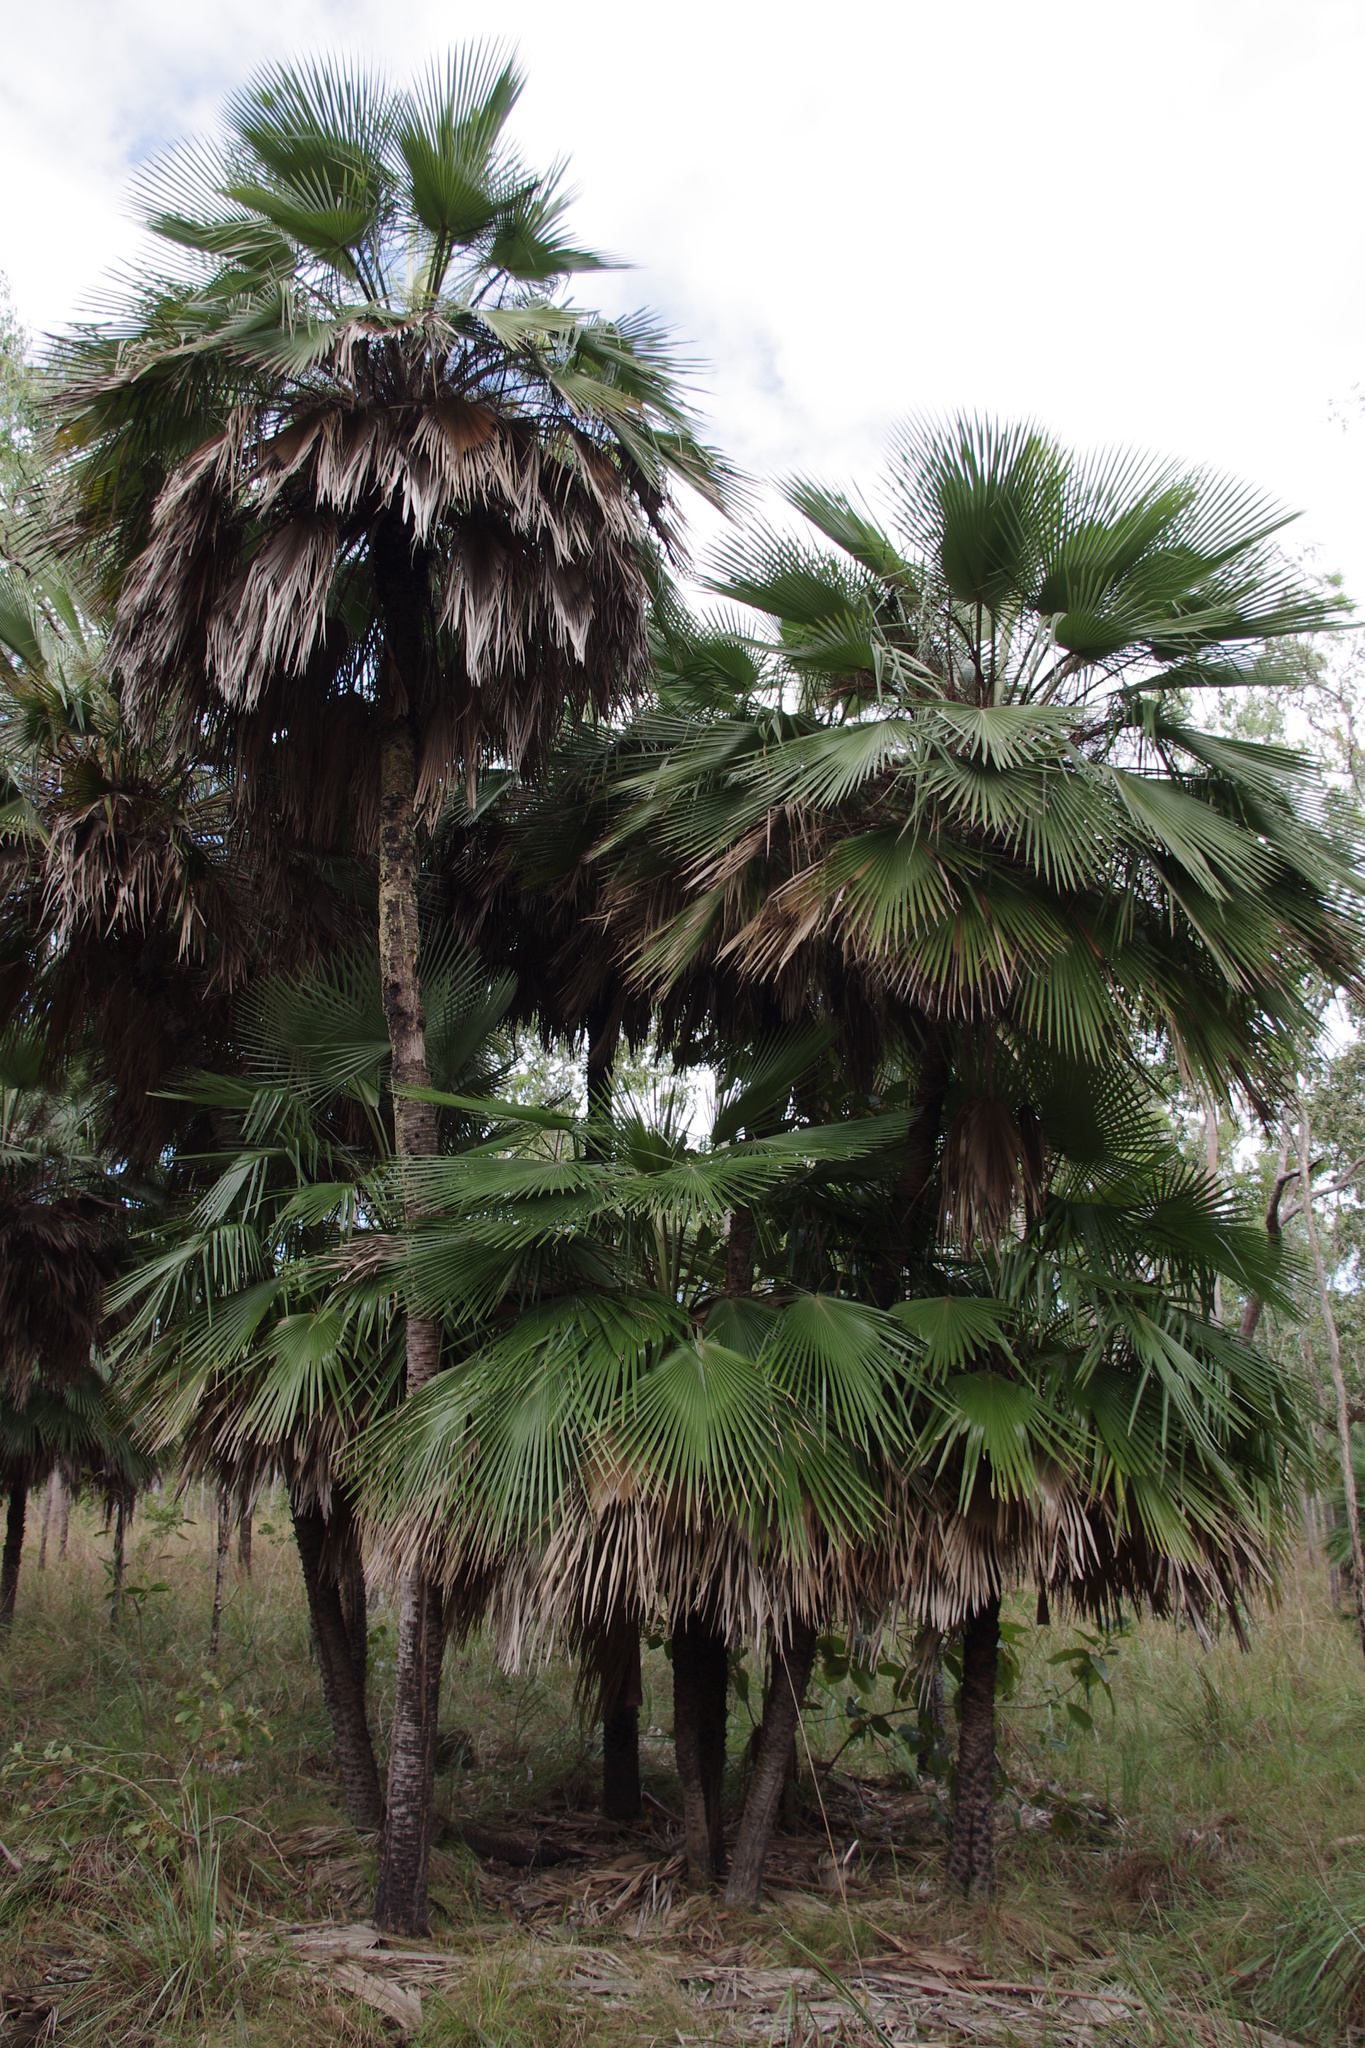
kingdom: Plantae
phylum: Tracheophyta
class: Liliopsida
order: Arecales
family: Arecaceae
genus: Livistona
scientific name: Livistona muelleri
